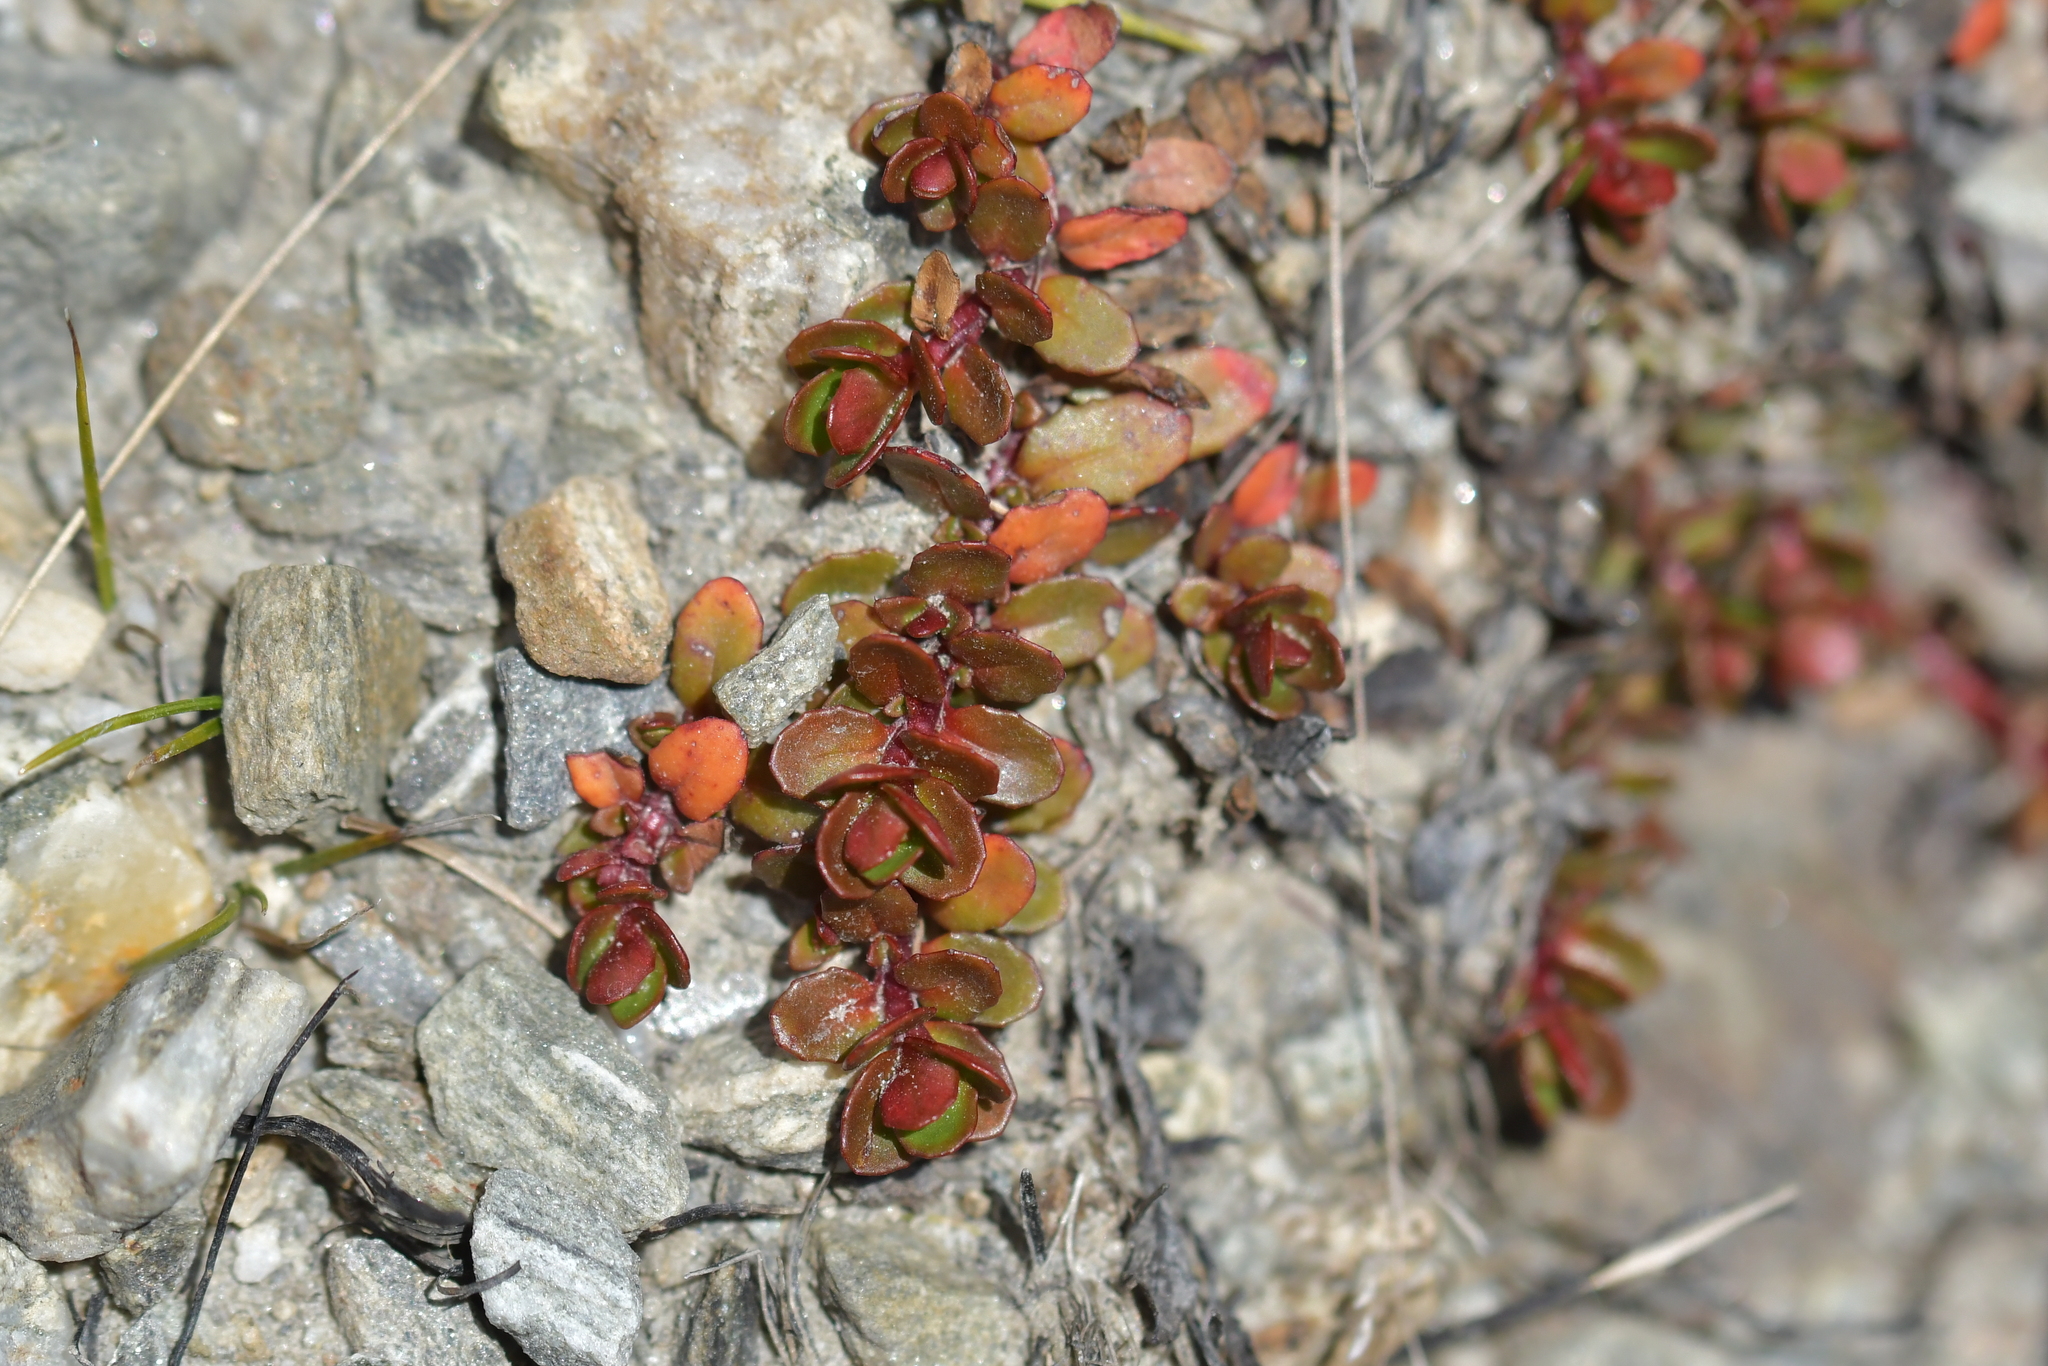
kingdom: Plantae
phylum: Tracheophyta
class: Magnoliopsida
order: Myrtales
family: Onagraceae
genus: Epilobium
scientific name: Epilobium tasmanicum
